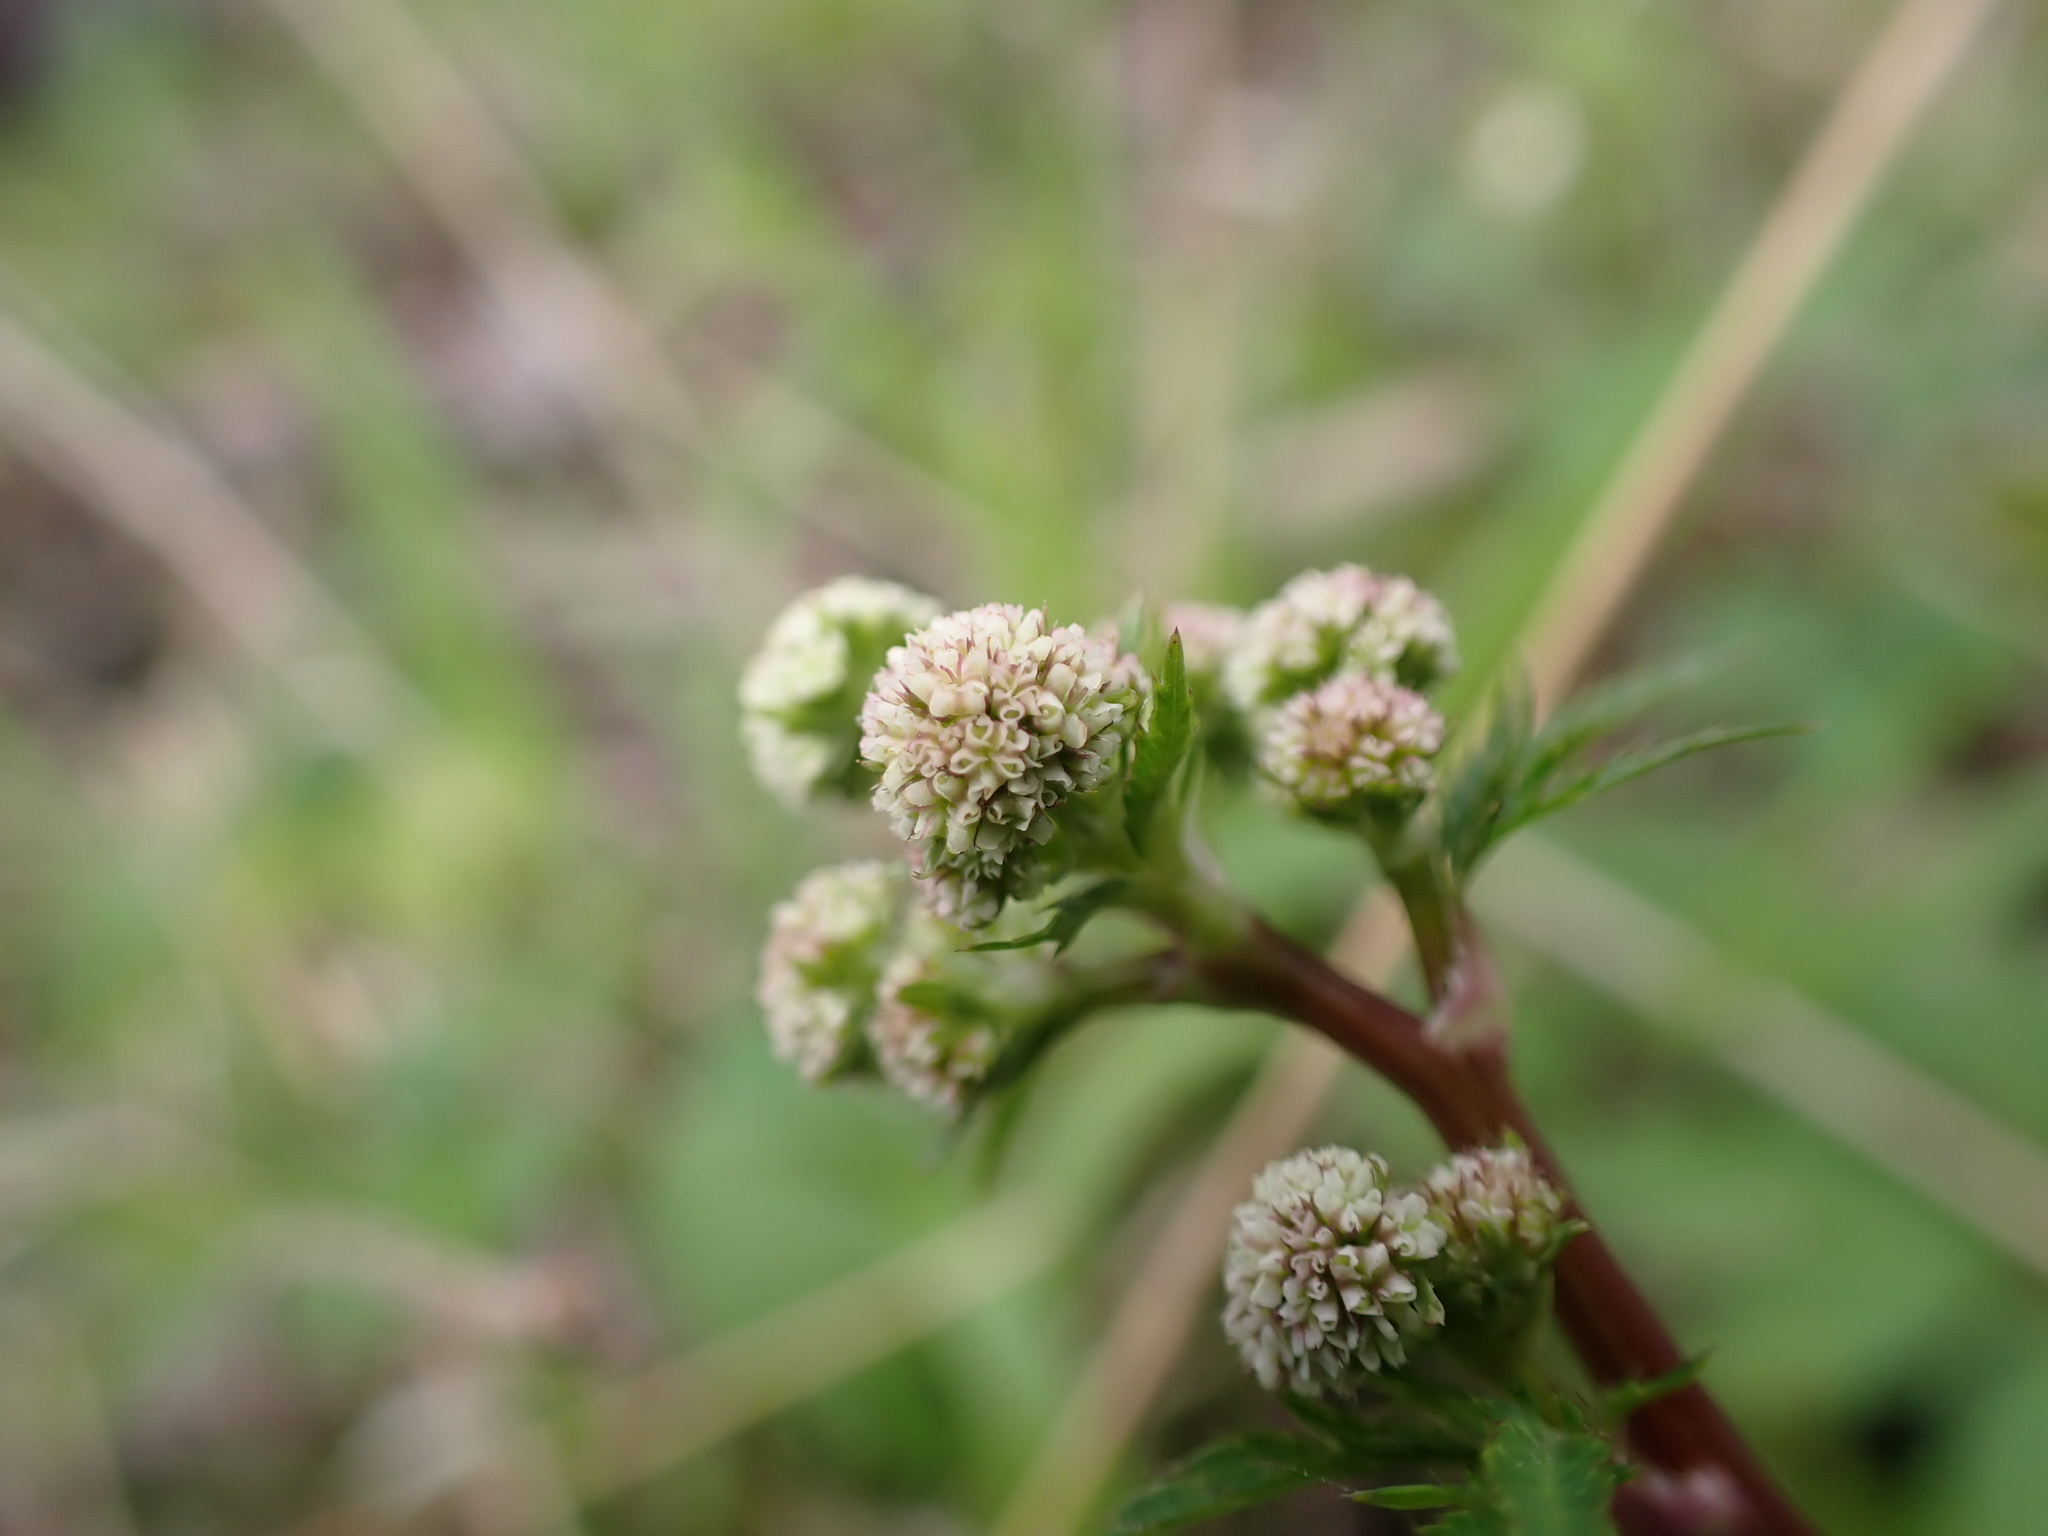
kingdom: Plantae
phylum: Tracheophyta
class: Magnoliopsida
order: Apiales
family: Apiaceae
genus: Sanicula
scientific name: Sanicula europaea
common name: Sanicle
